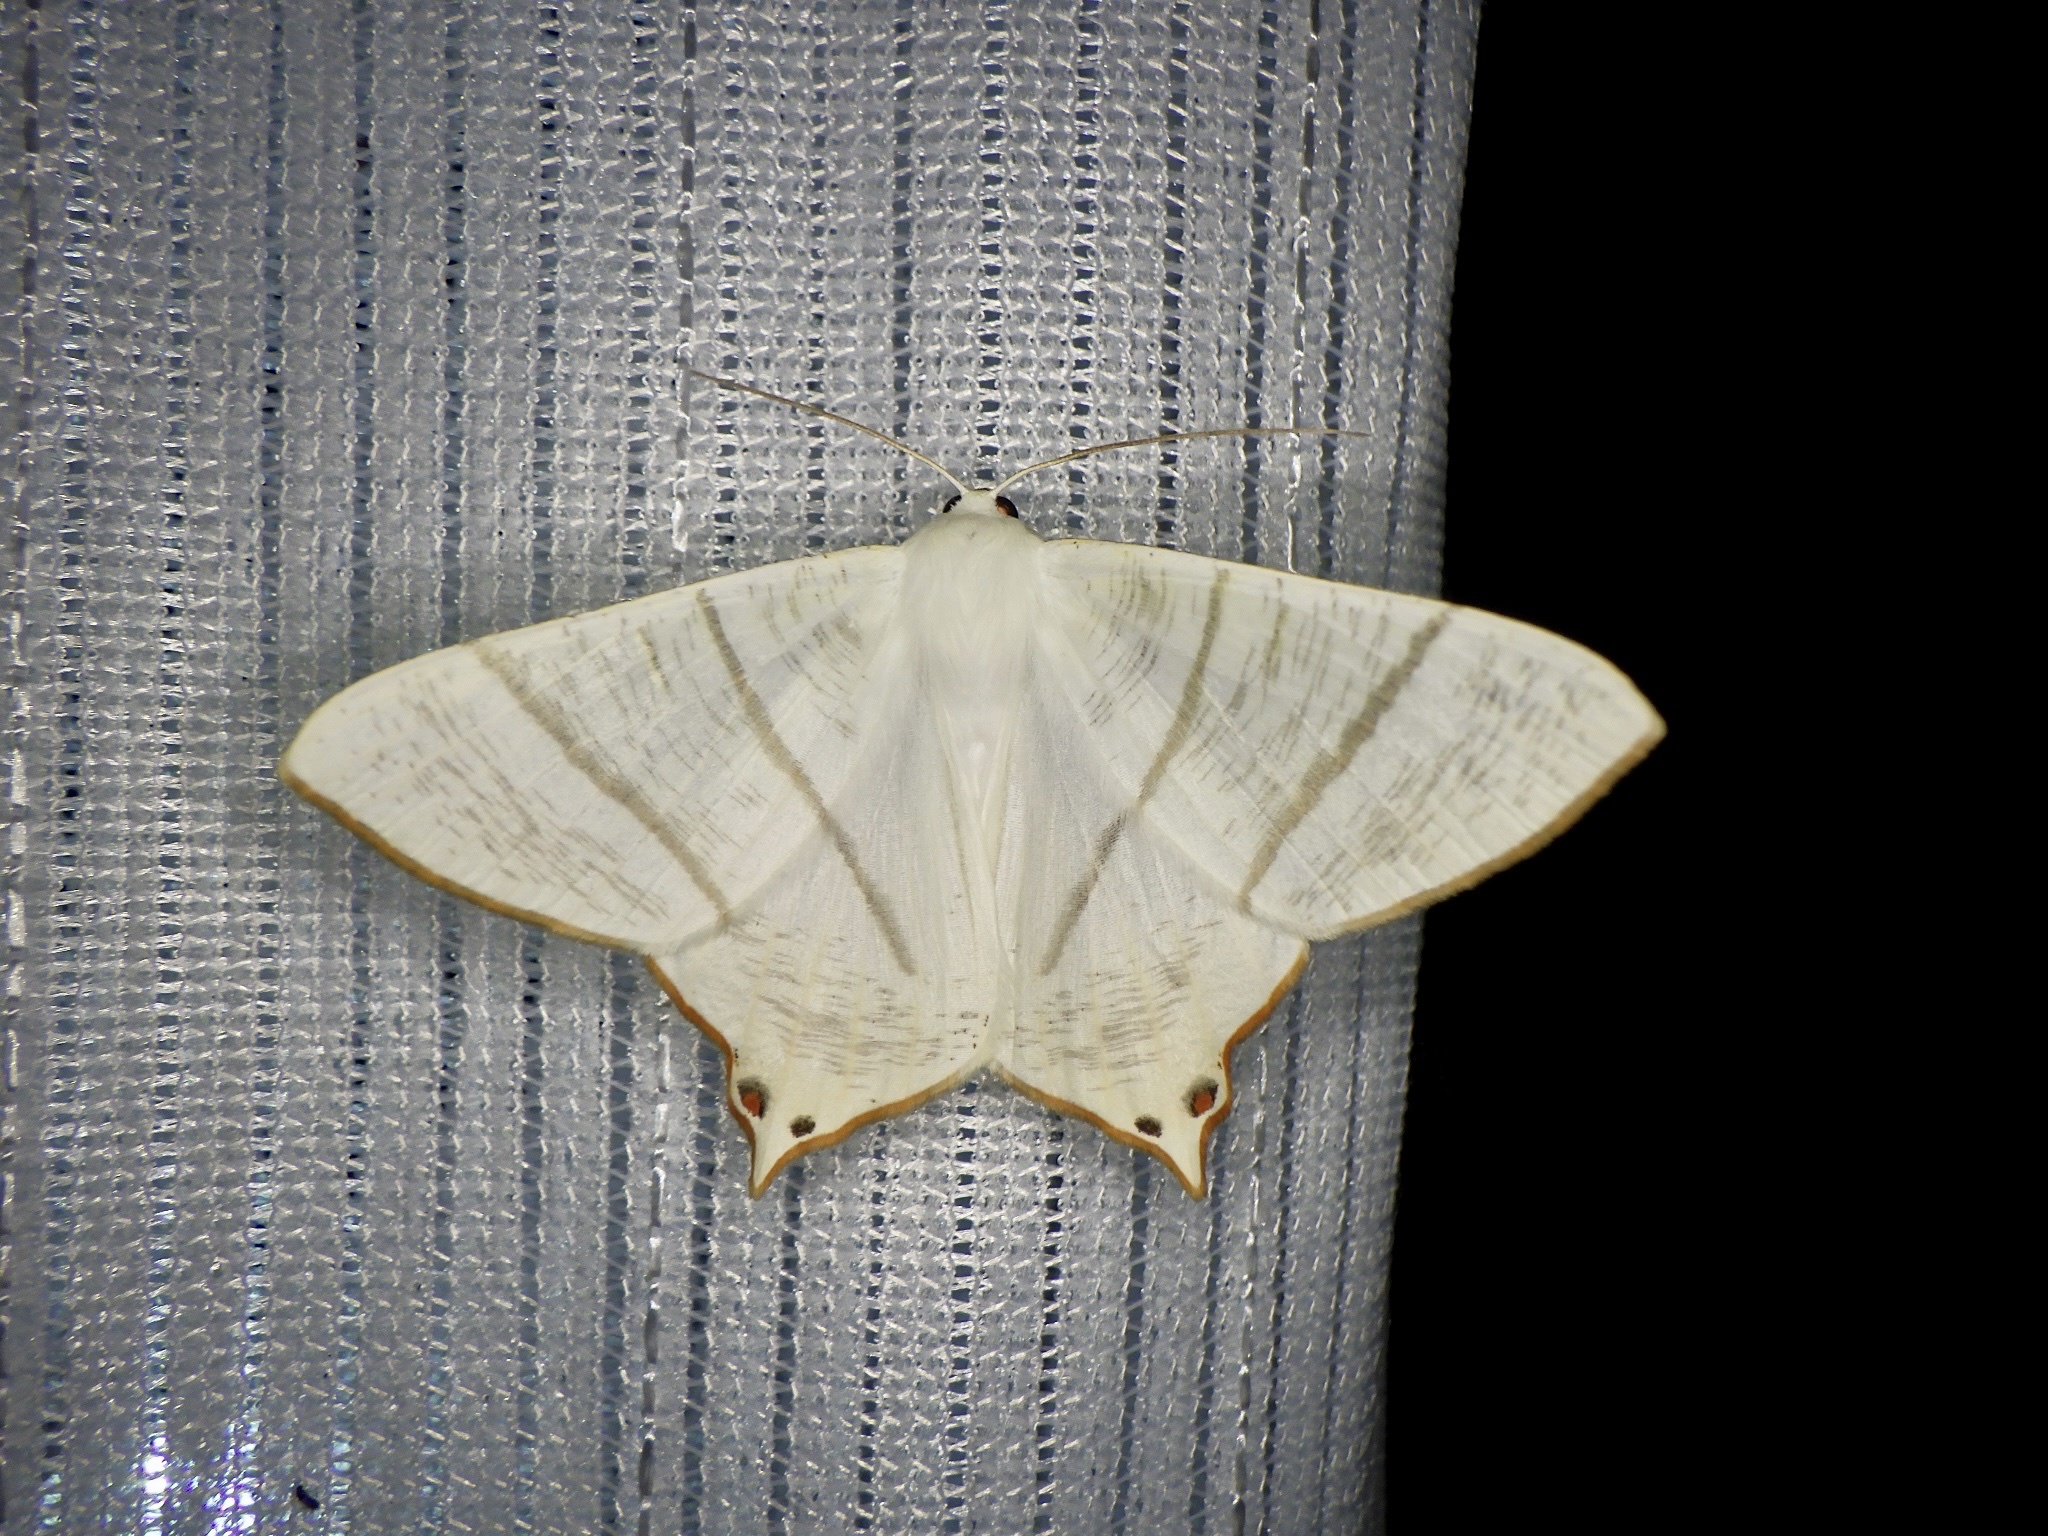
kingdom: Animalia
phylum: Arthropoda
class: Insecta
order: Lepidoptera
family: Geometridae
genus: Ourapteryx
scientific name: Ourapteryx nivea
